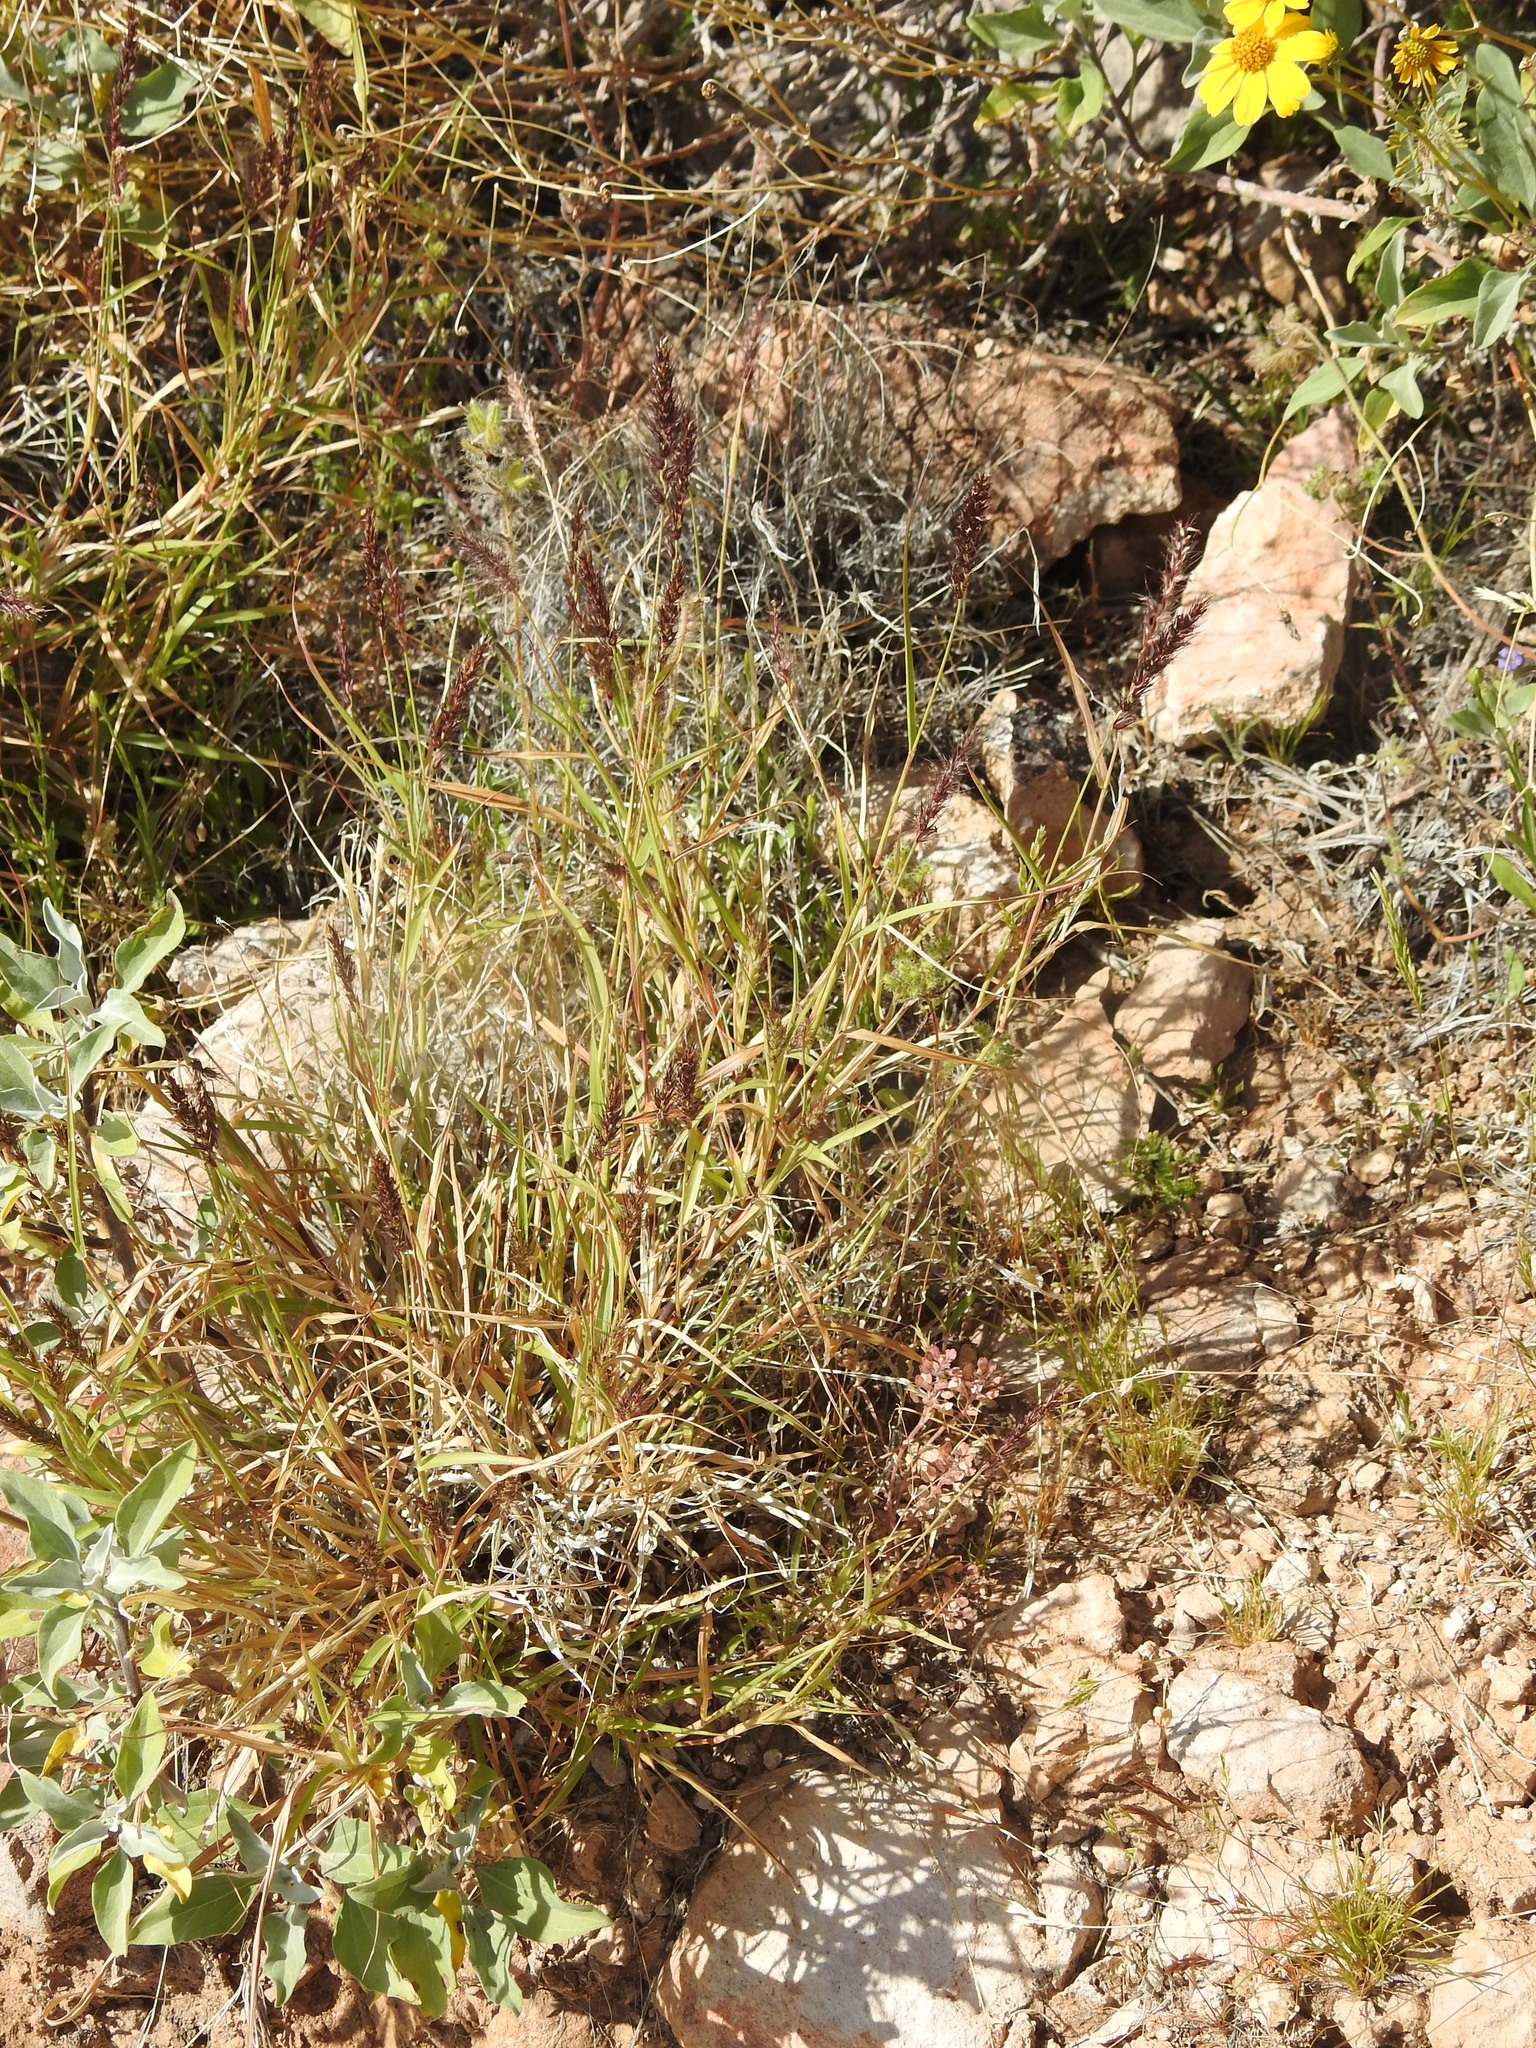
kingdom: Plantae
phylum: Tracheophyta
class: Liliopsida
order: Poales
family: Poaceae
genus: Cenchrus
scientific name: Cenchrus ciliaris
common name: Buffelgrass
